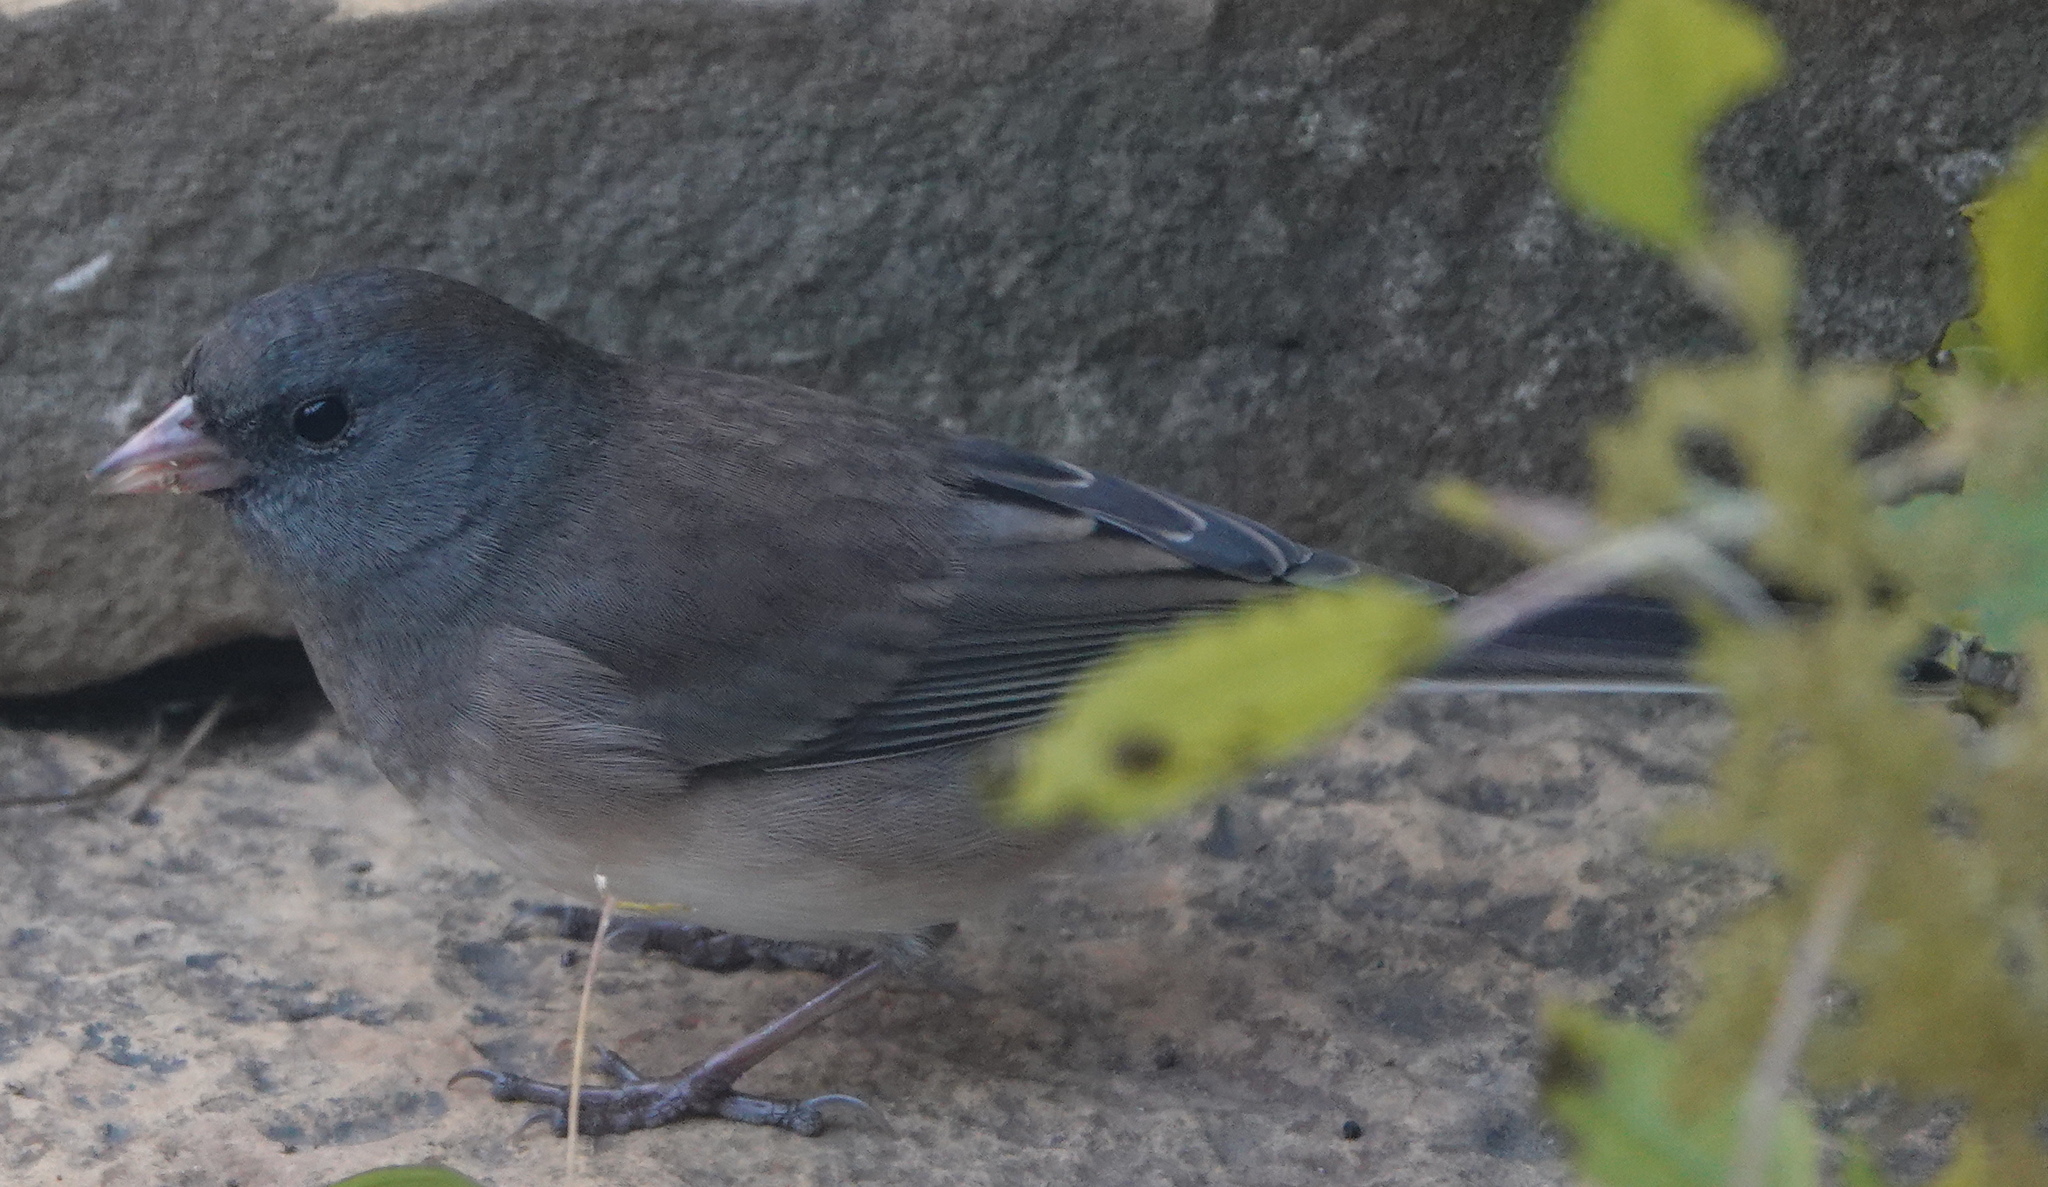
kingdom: Animalia
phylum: Chordata
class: Aves
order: Passeriformes
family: Passerellidae
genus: Junco
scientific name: Junco hyemalis
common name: Dark-eyed junco
